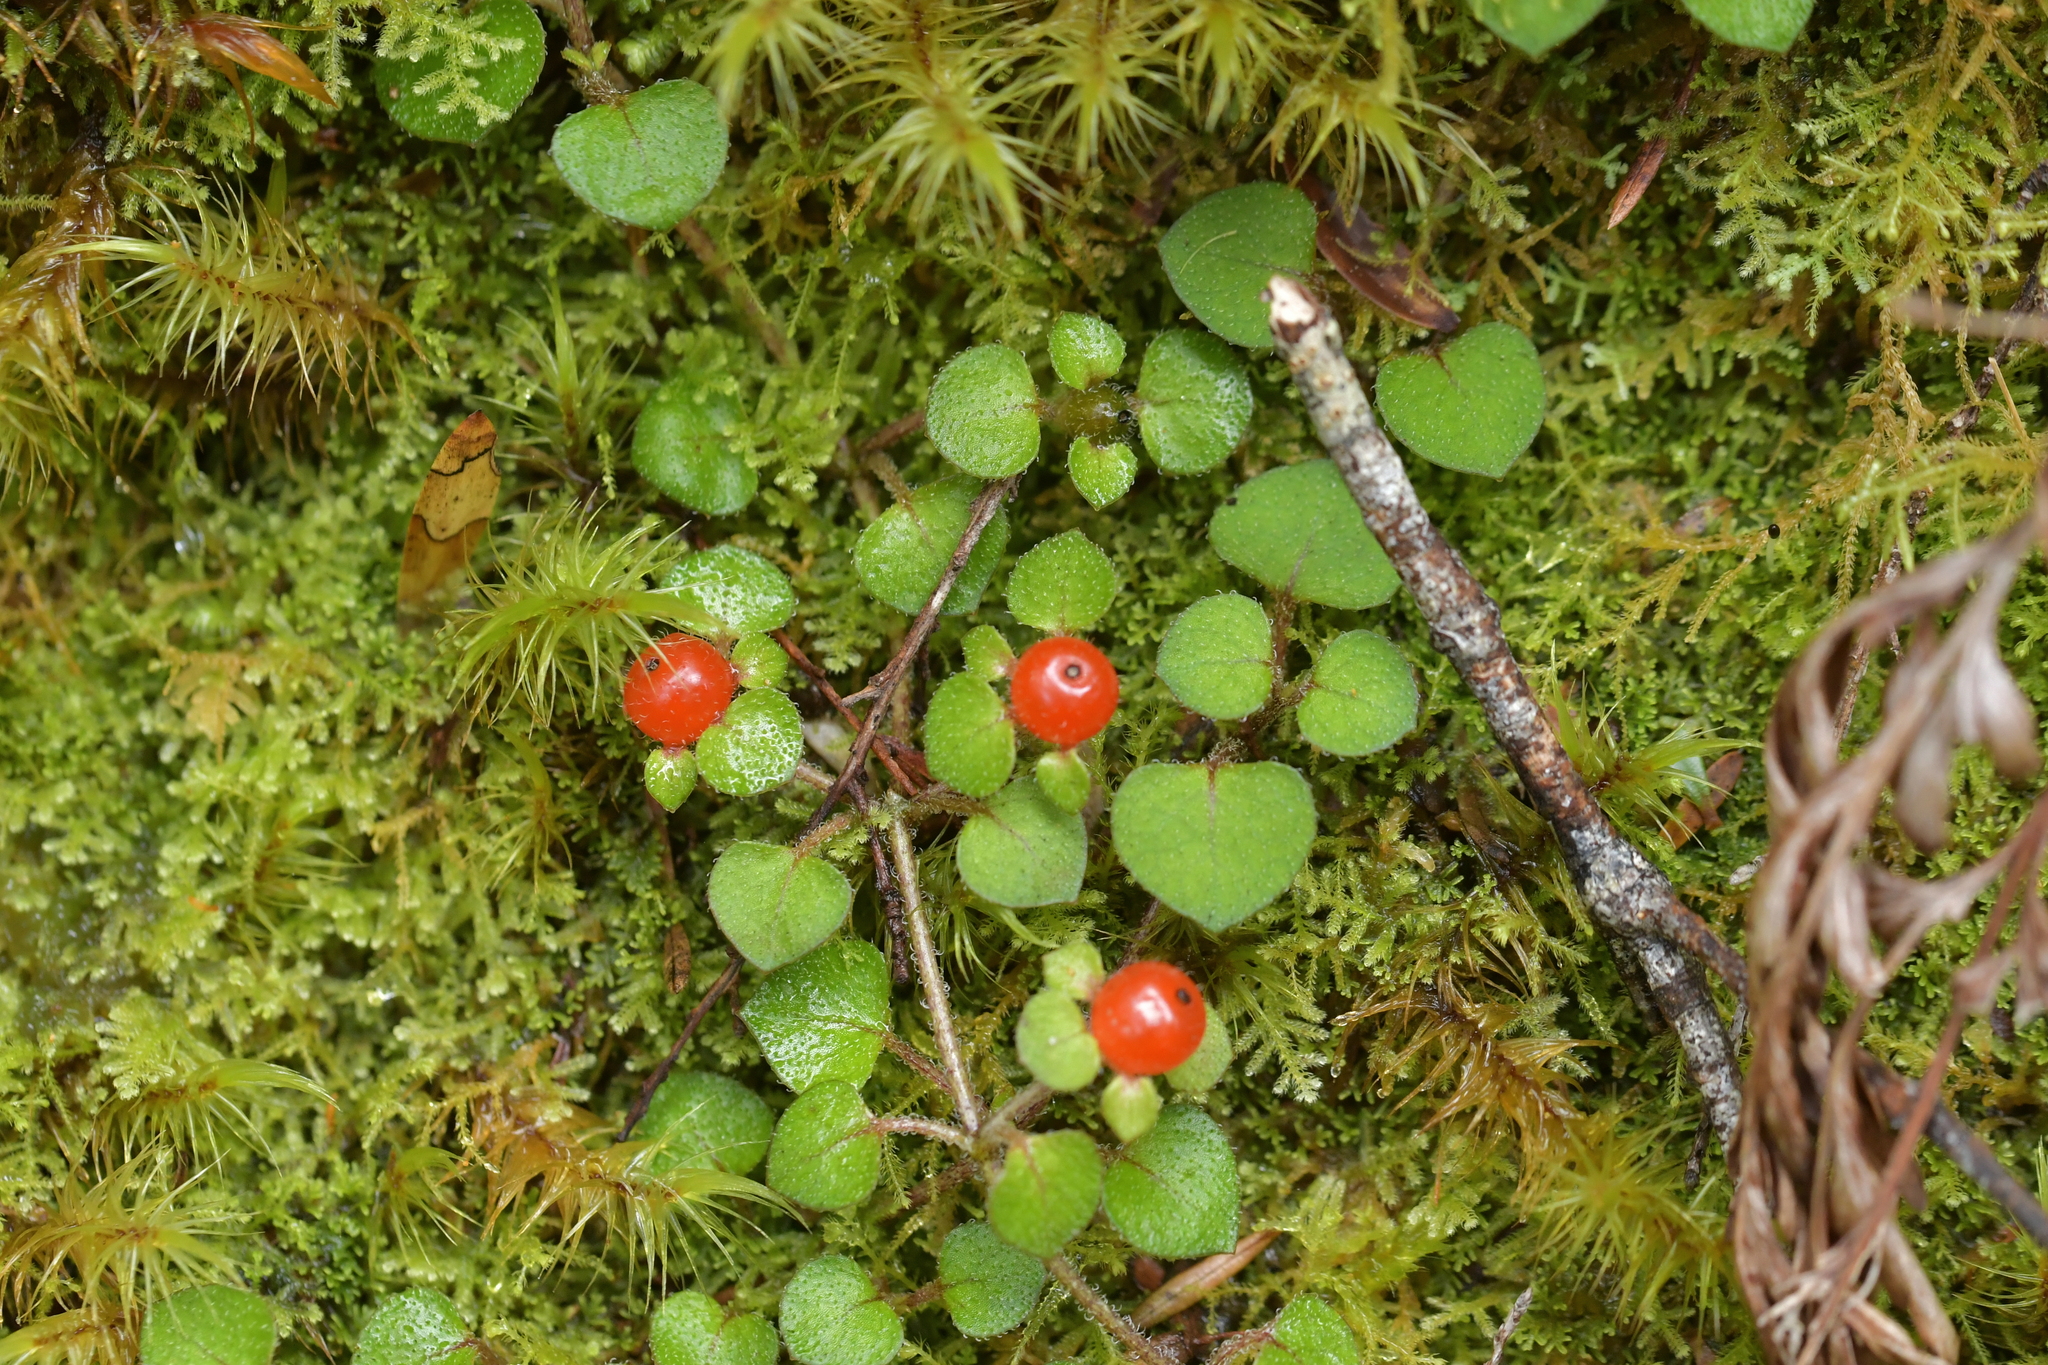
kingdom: Plantae
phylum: Tracheophyta
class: Magnoliopsida
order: Gentianales
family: Rubiaceae
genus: Nertera
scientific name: Nertera dichondrifolia
